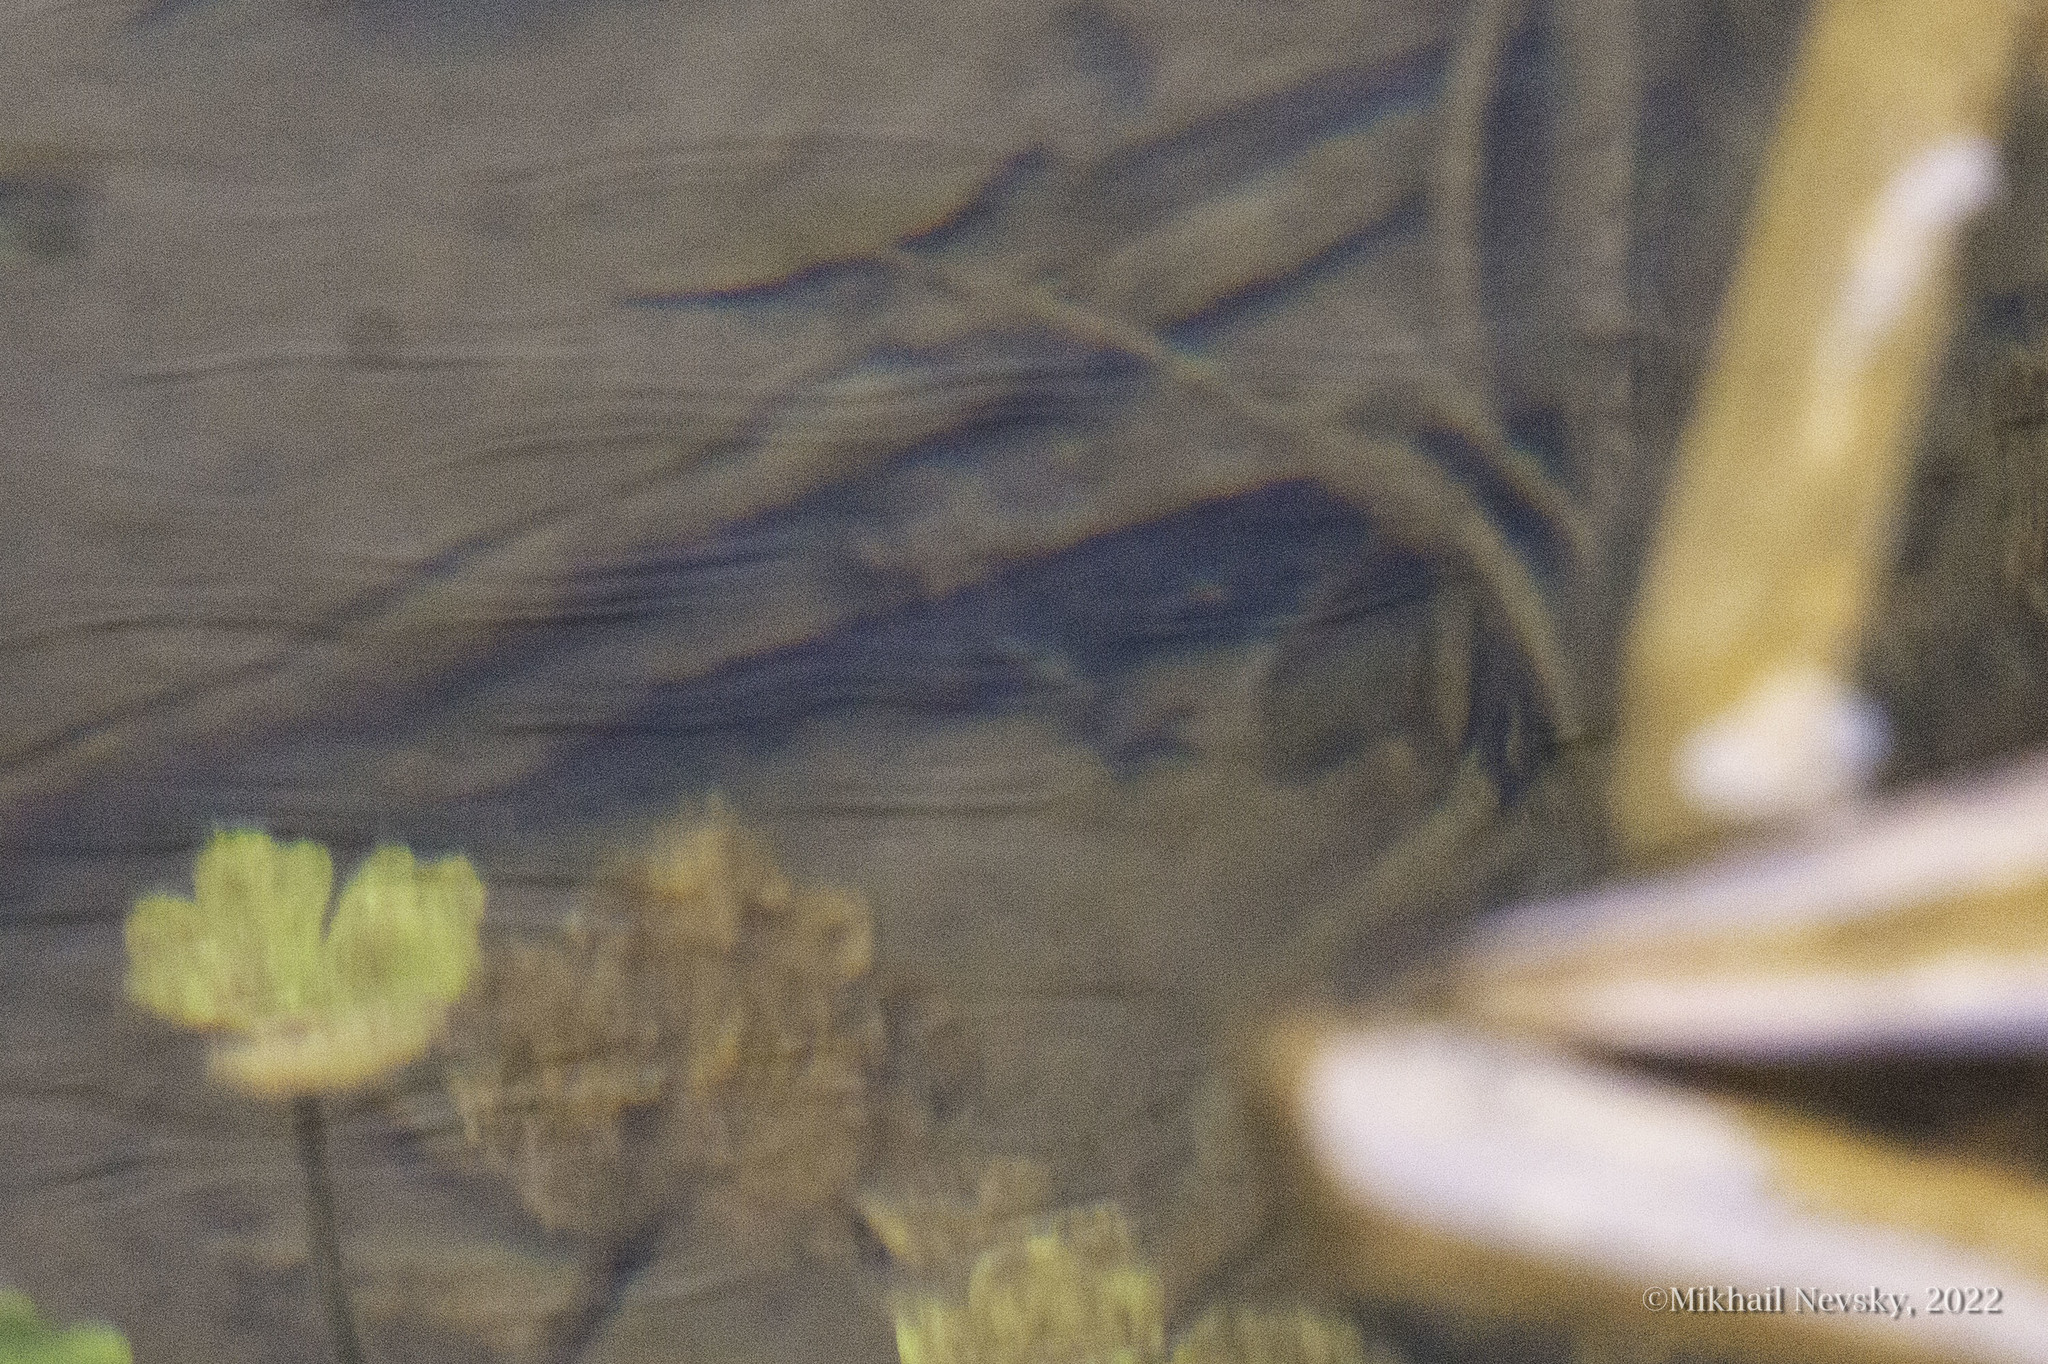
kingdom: Animalia
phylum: Chordata
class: Amphibia
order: Caudata
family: Salamandridae
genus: Lissotriton
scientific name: Lissotriton vulgaris
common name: Smooth newt
